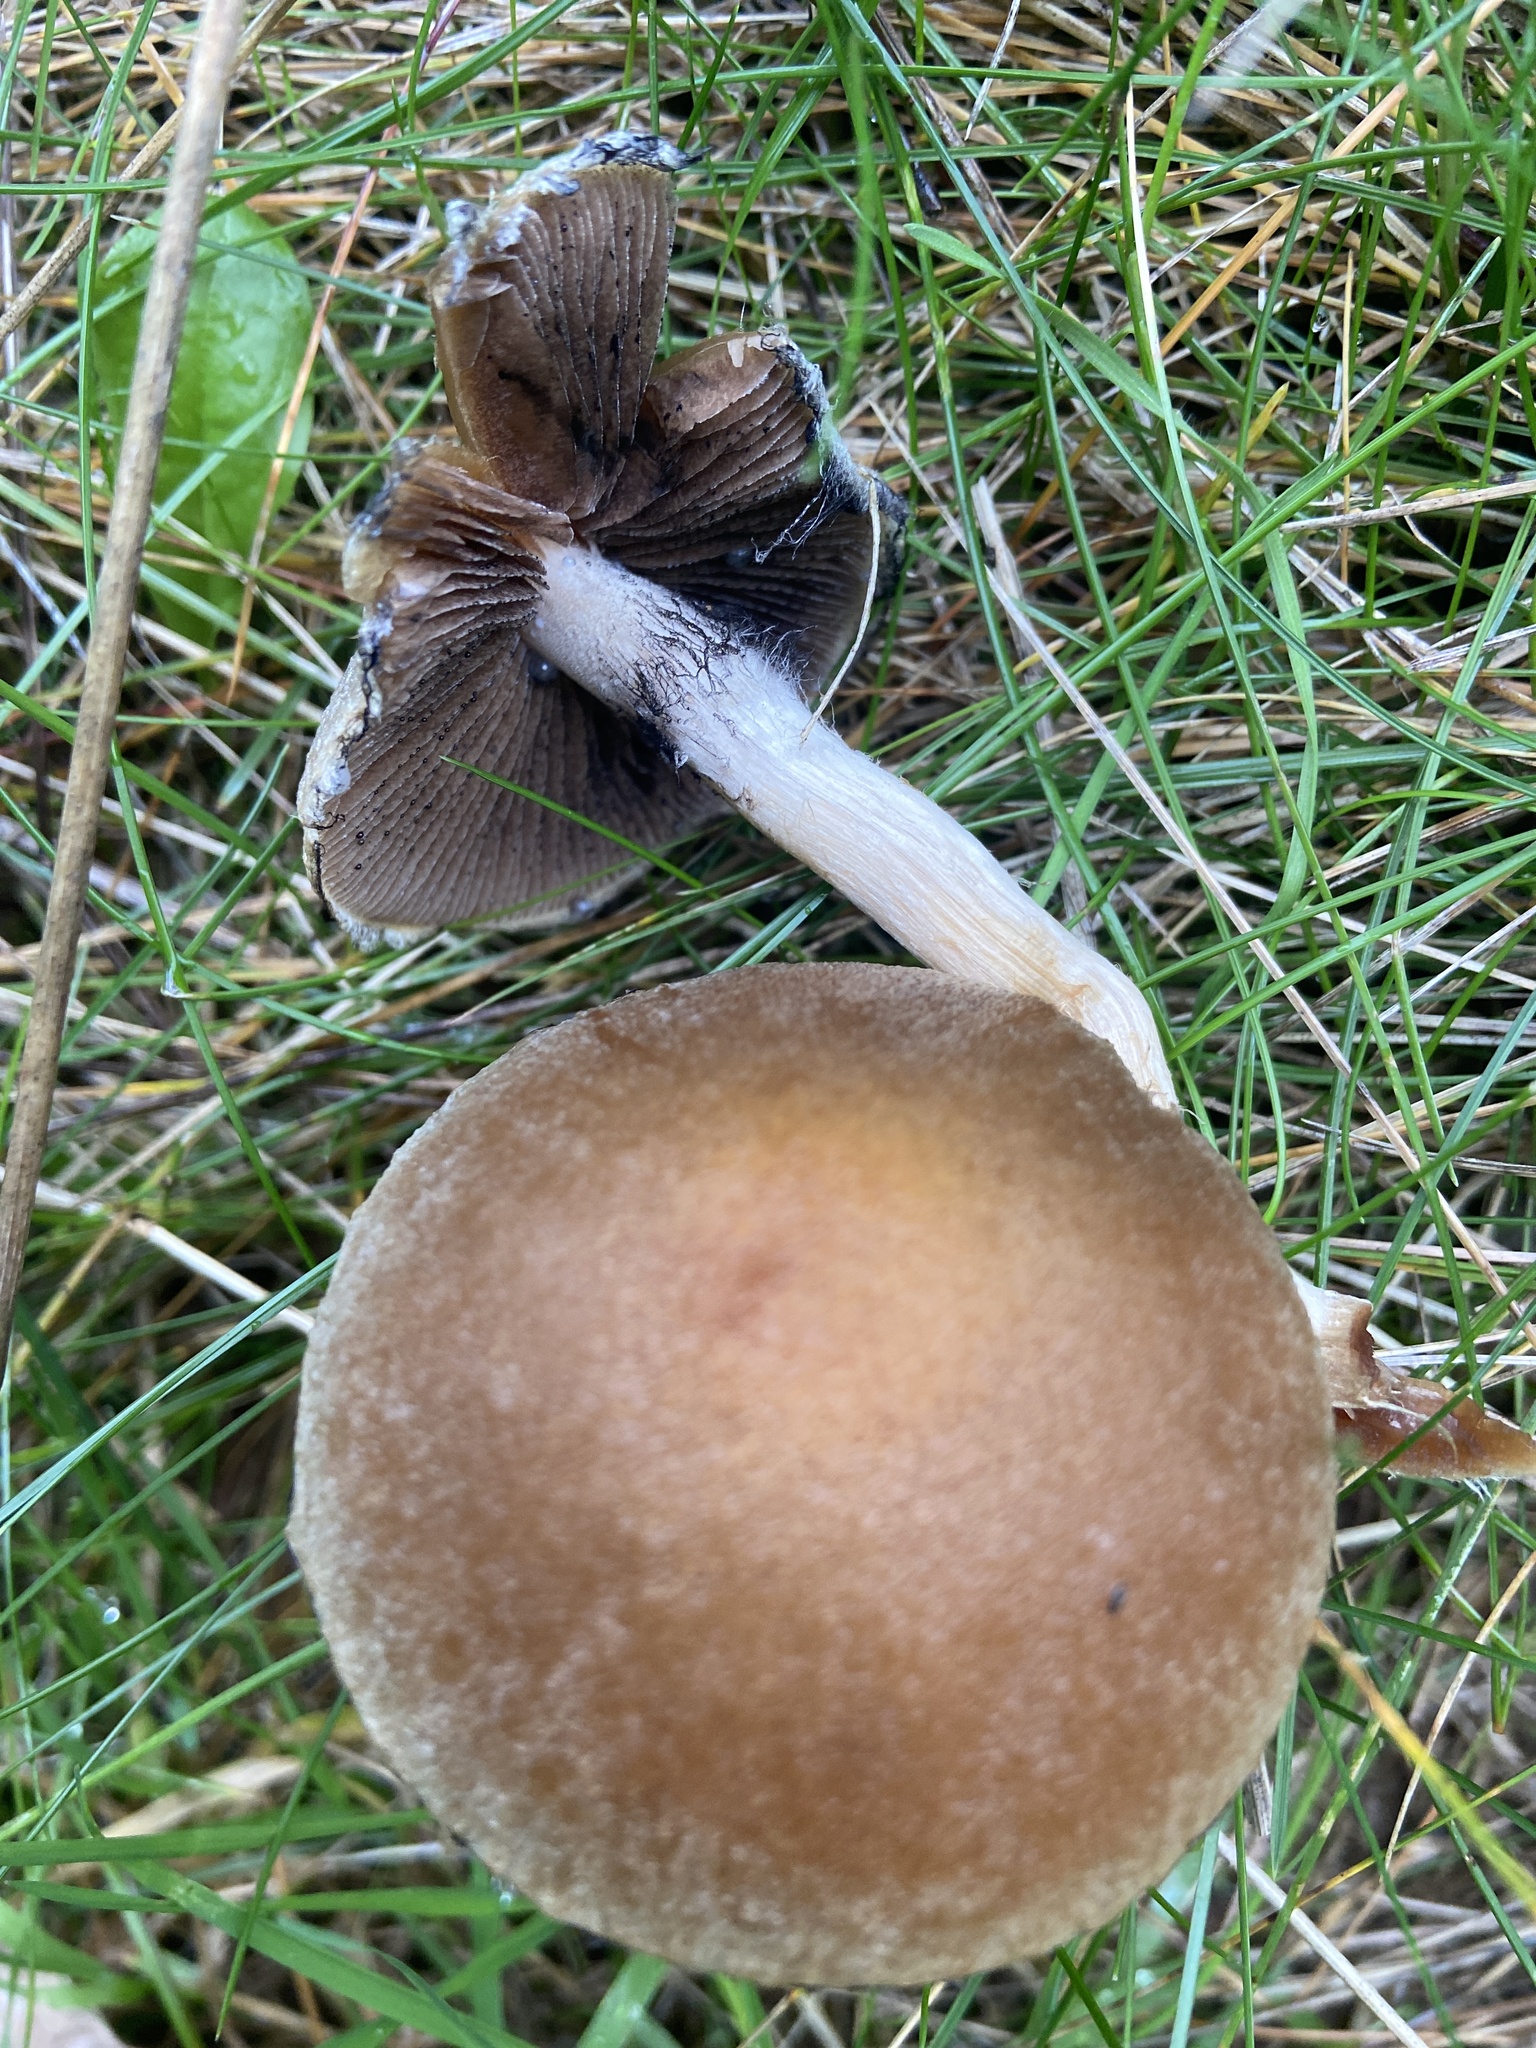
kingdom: Fungi
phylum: Basidiomycota
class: Agaricomycetes
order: Agaricales
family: Psathyrellaceae
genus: Lacrymaria
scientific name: Lacrymaria lacrymabunda
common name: Weeping widow
